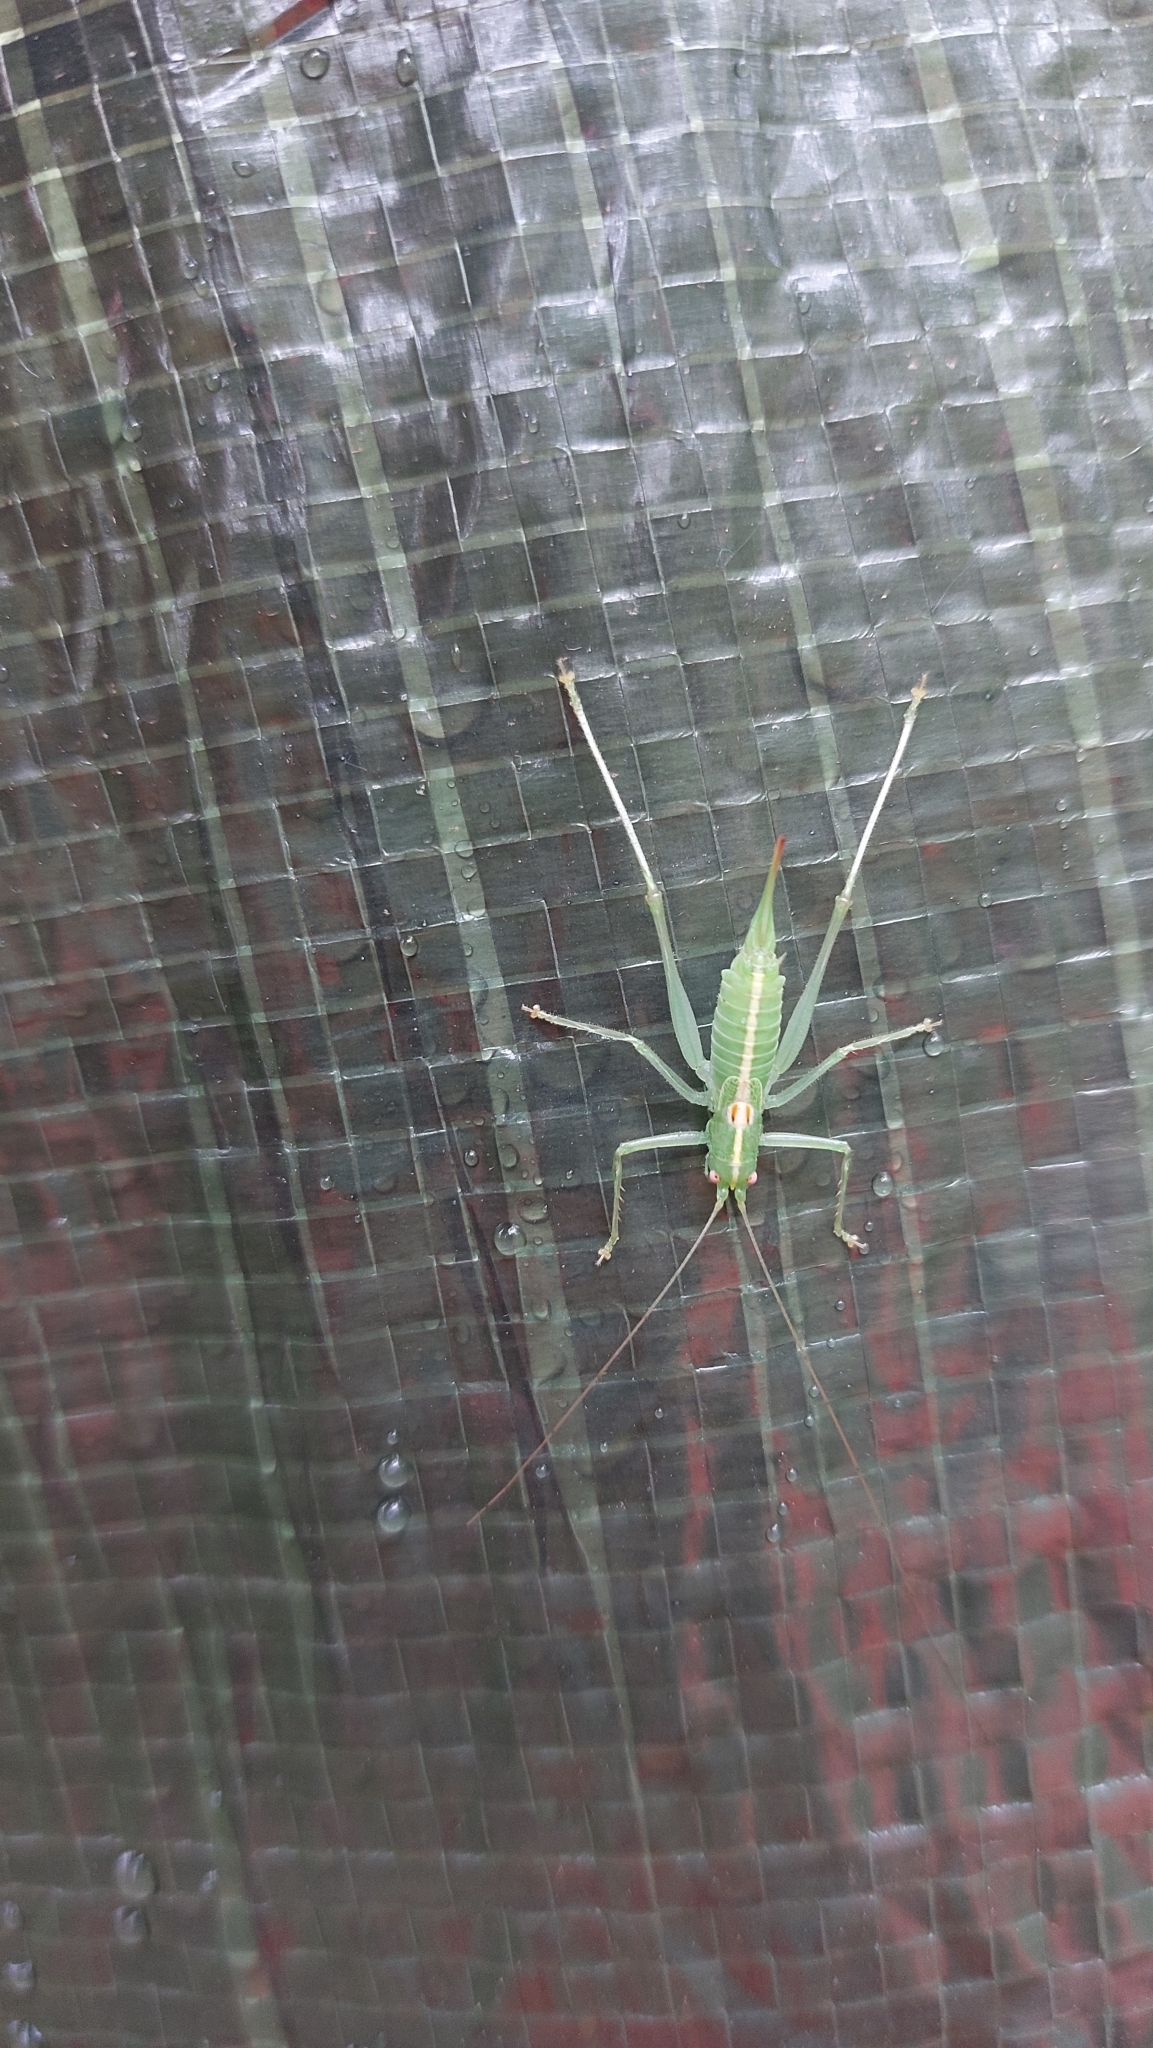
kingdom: Animalia
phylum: Arthropoda
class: Insecta
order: Orthoptera
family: Tettigoniidae
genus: Meconema
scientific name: Meconema meridionale
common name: Southern oak bush-cricket
